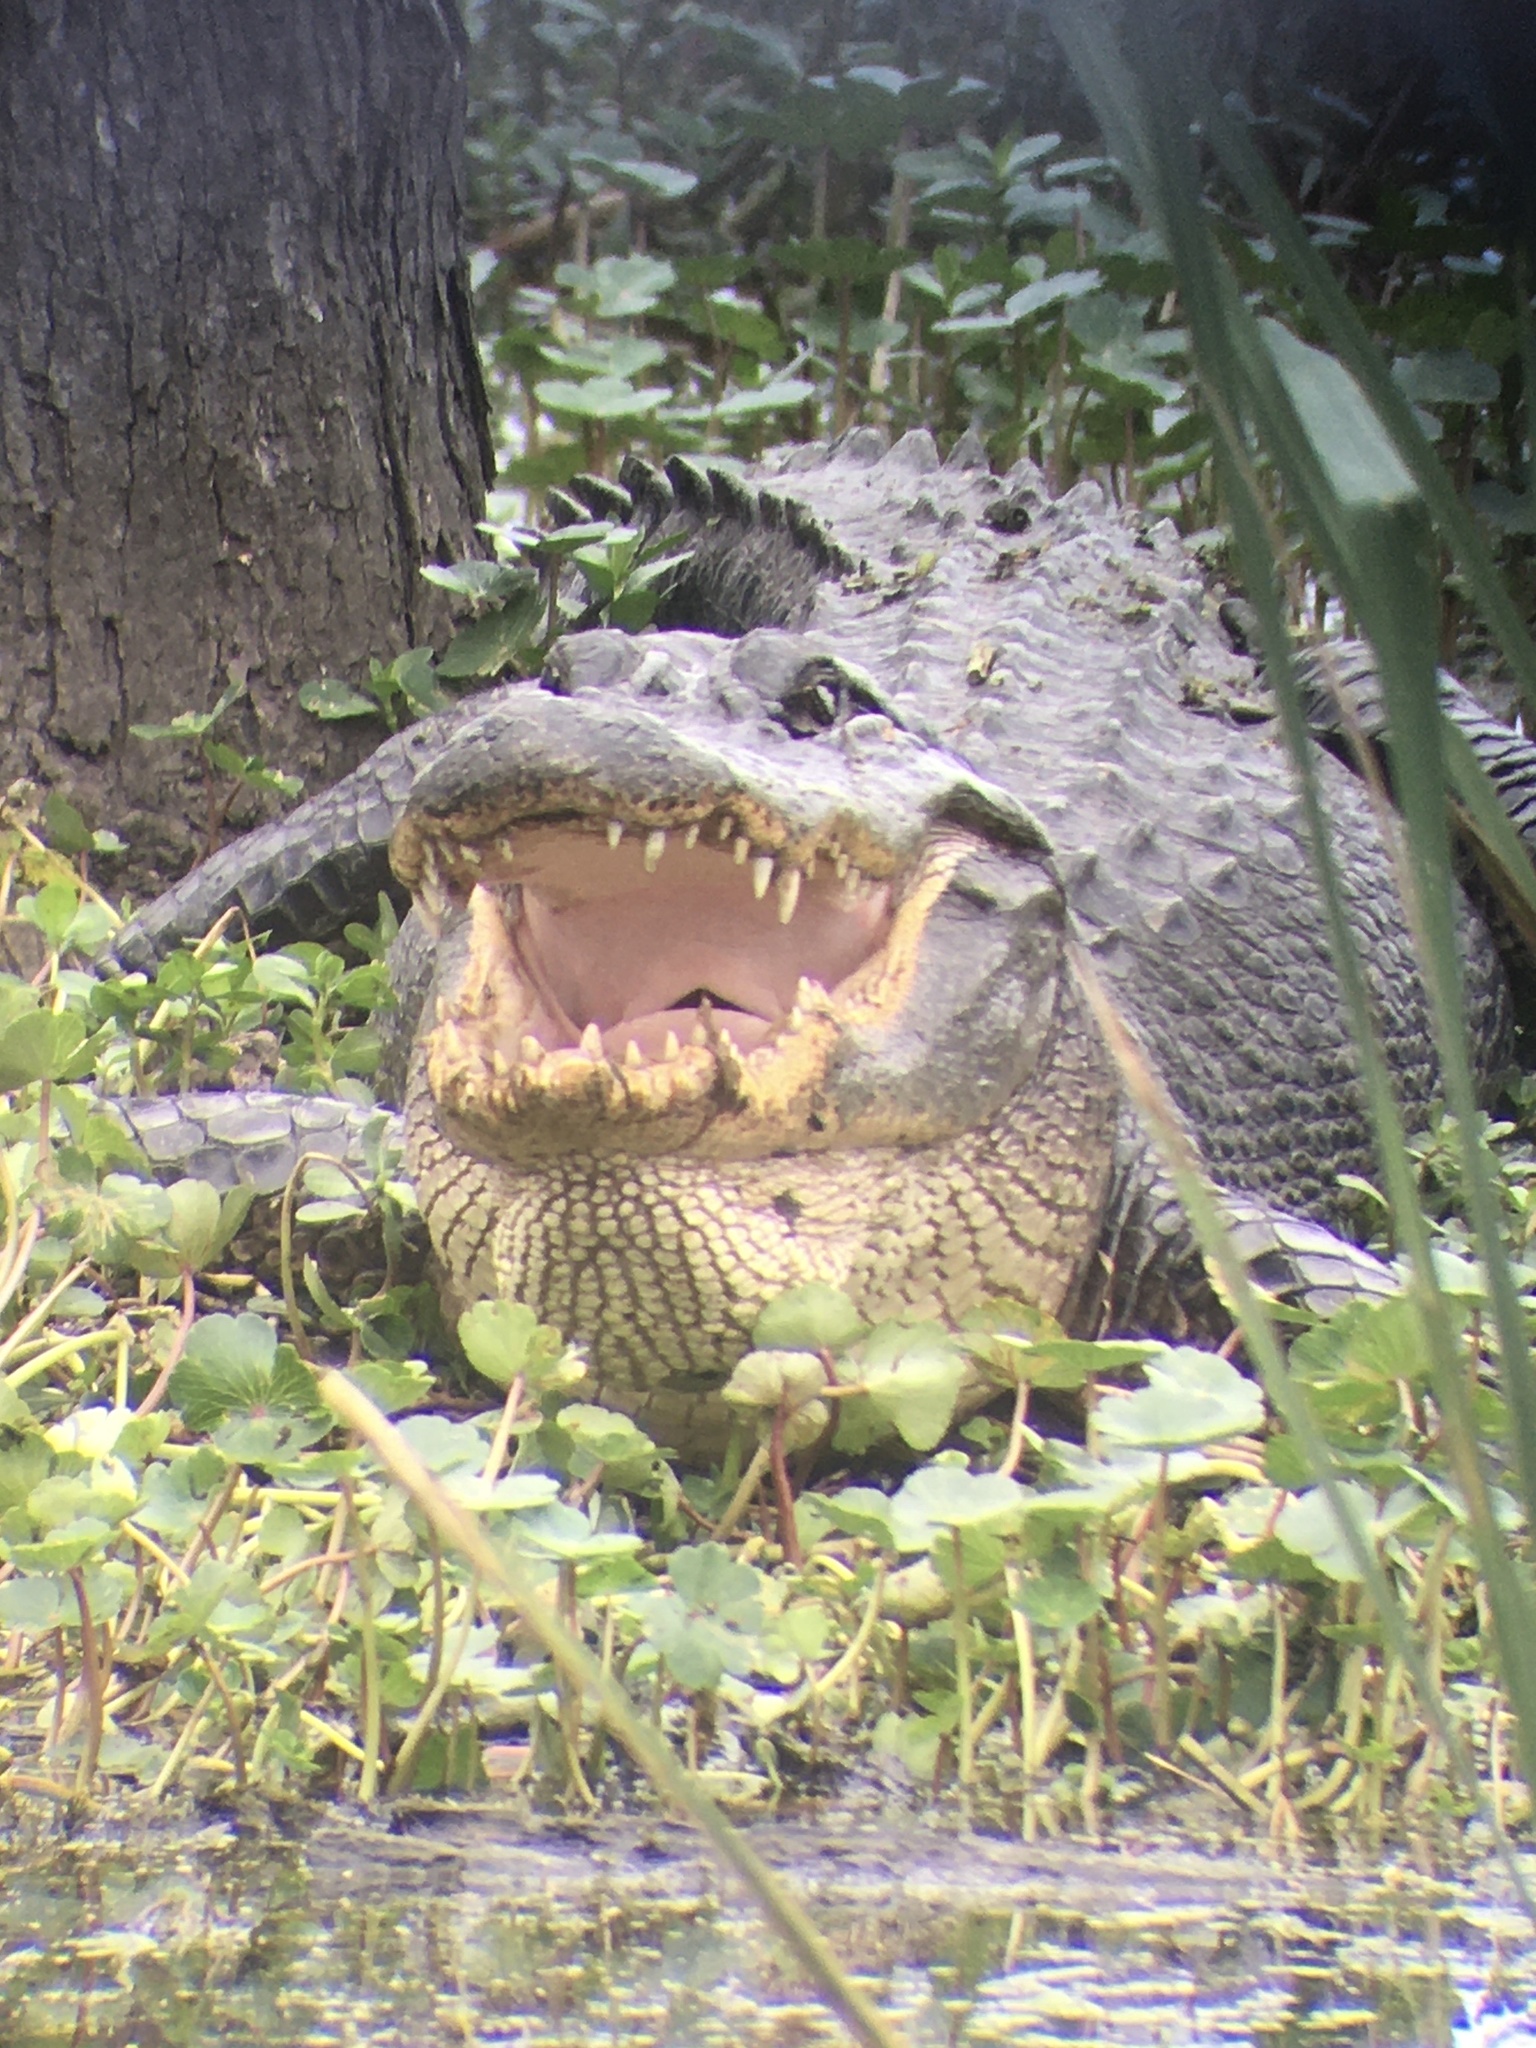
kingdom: Animalia
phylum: Chordata
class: Crocodylia
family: Alligatoridae
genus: Alligator
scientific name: Alligator mississippiensis
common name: American alligator
